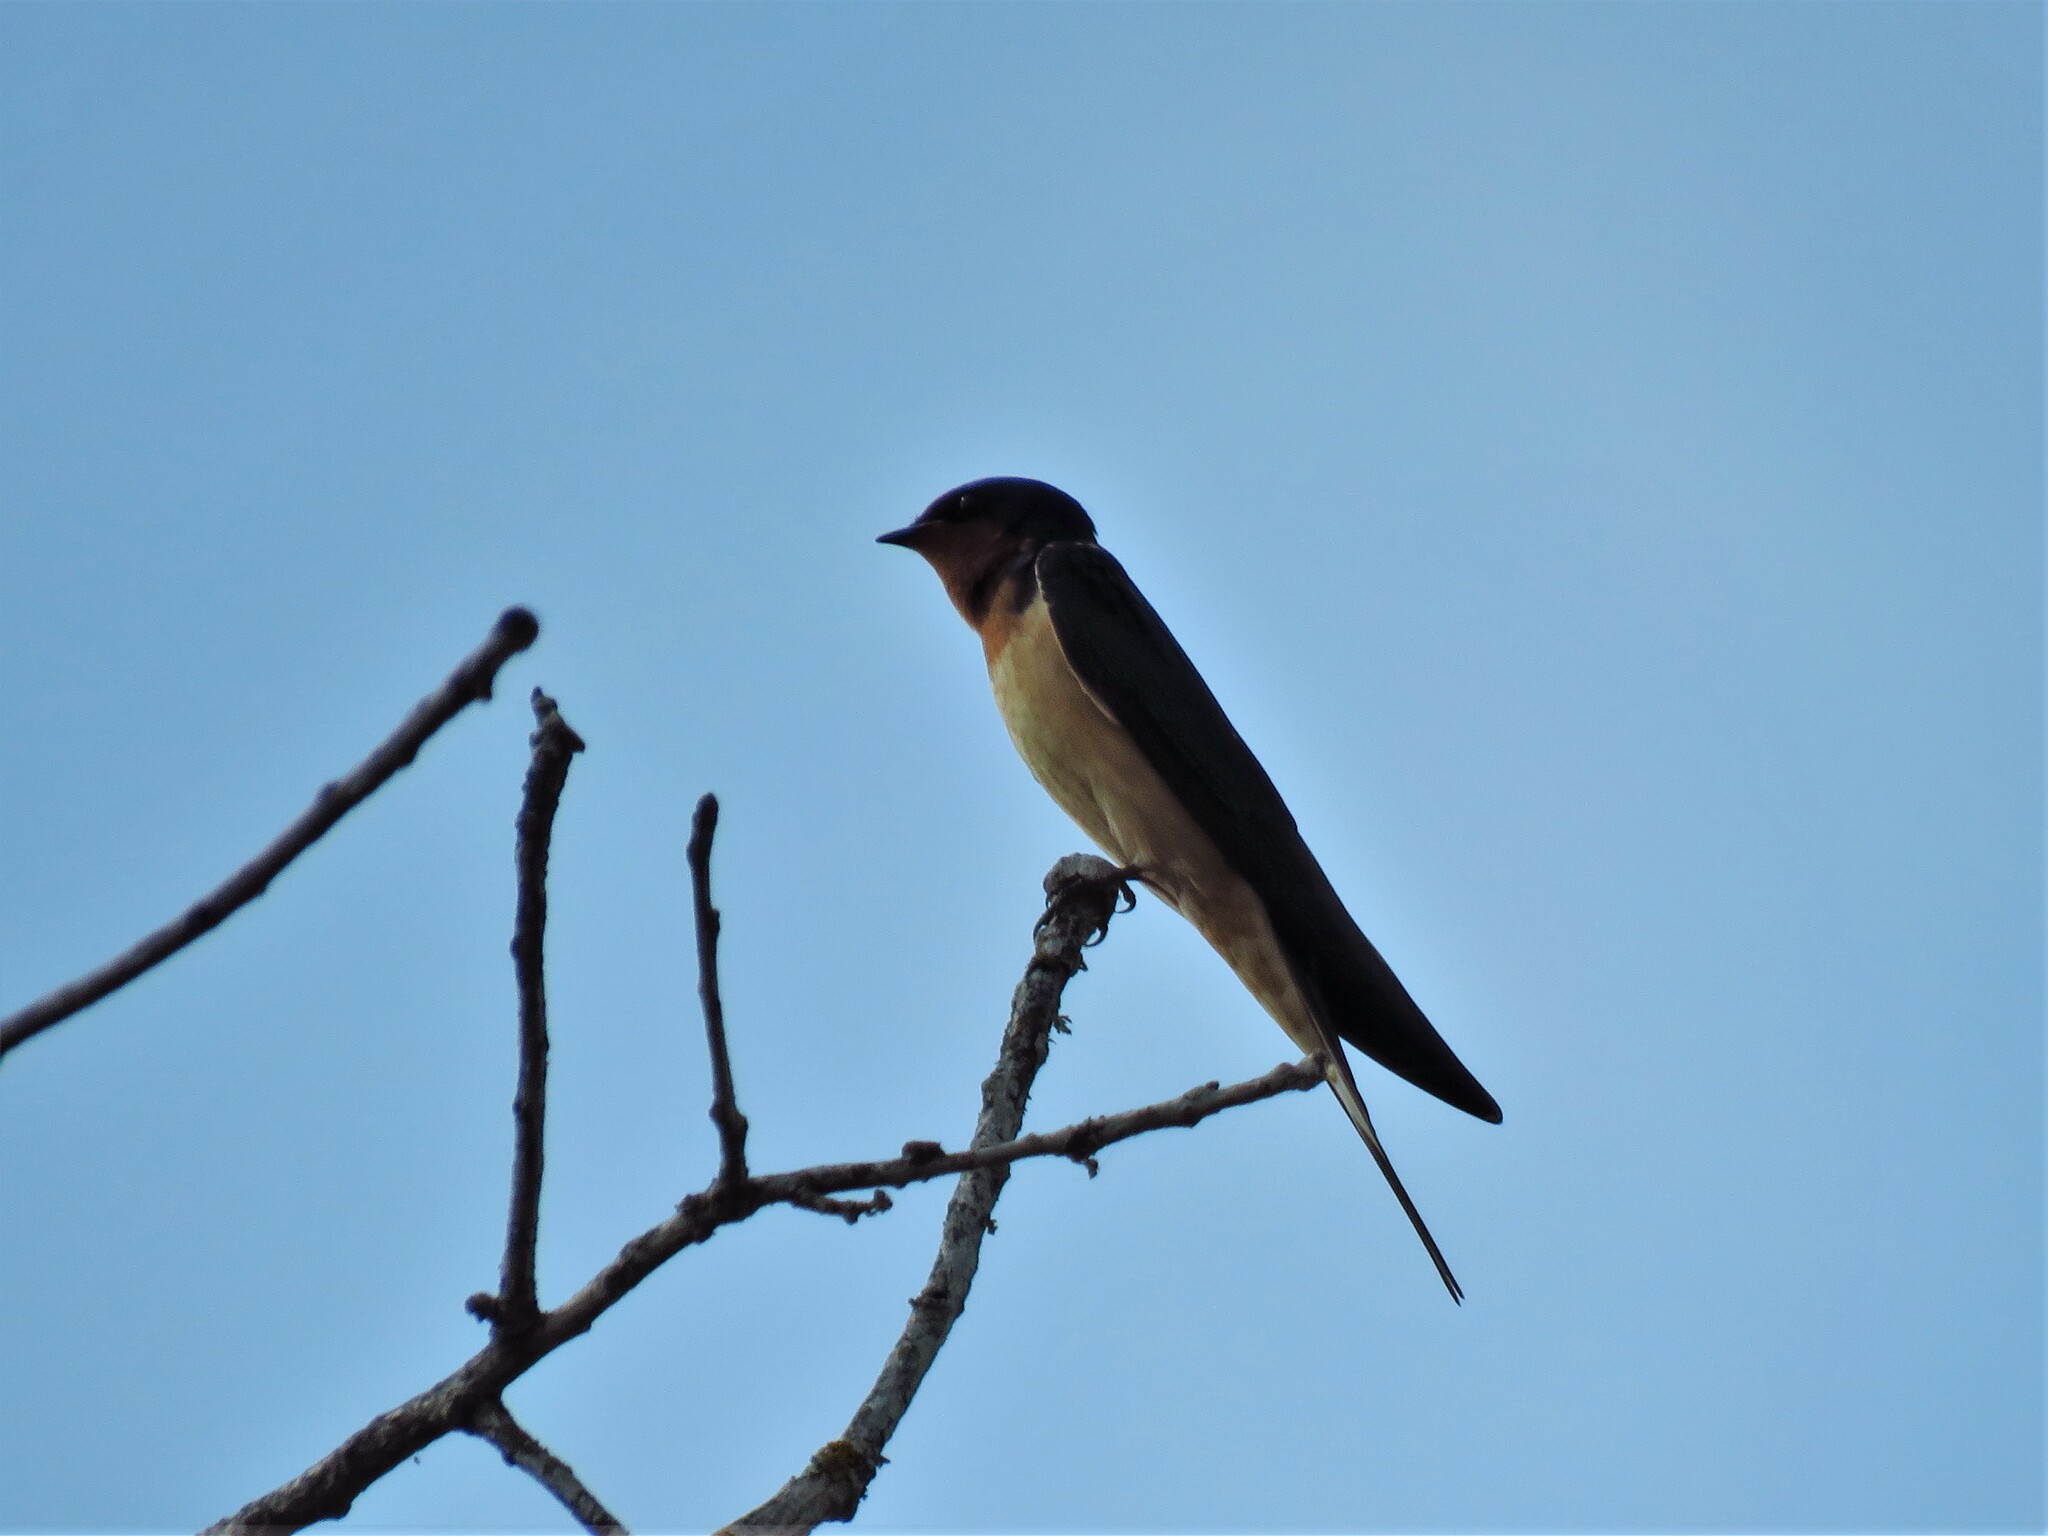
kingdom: Animalia
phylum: Chordata
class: Aves
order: Passeriformes
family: Hirundinidae
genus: Hirundo
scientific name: Hirundo rustica
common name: Barn swallow
